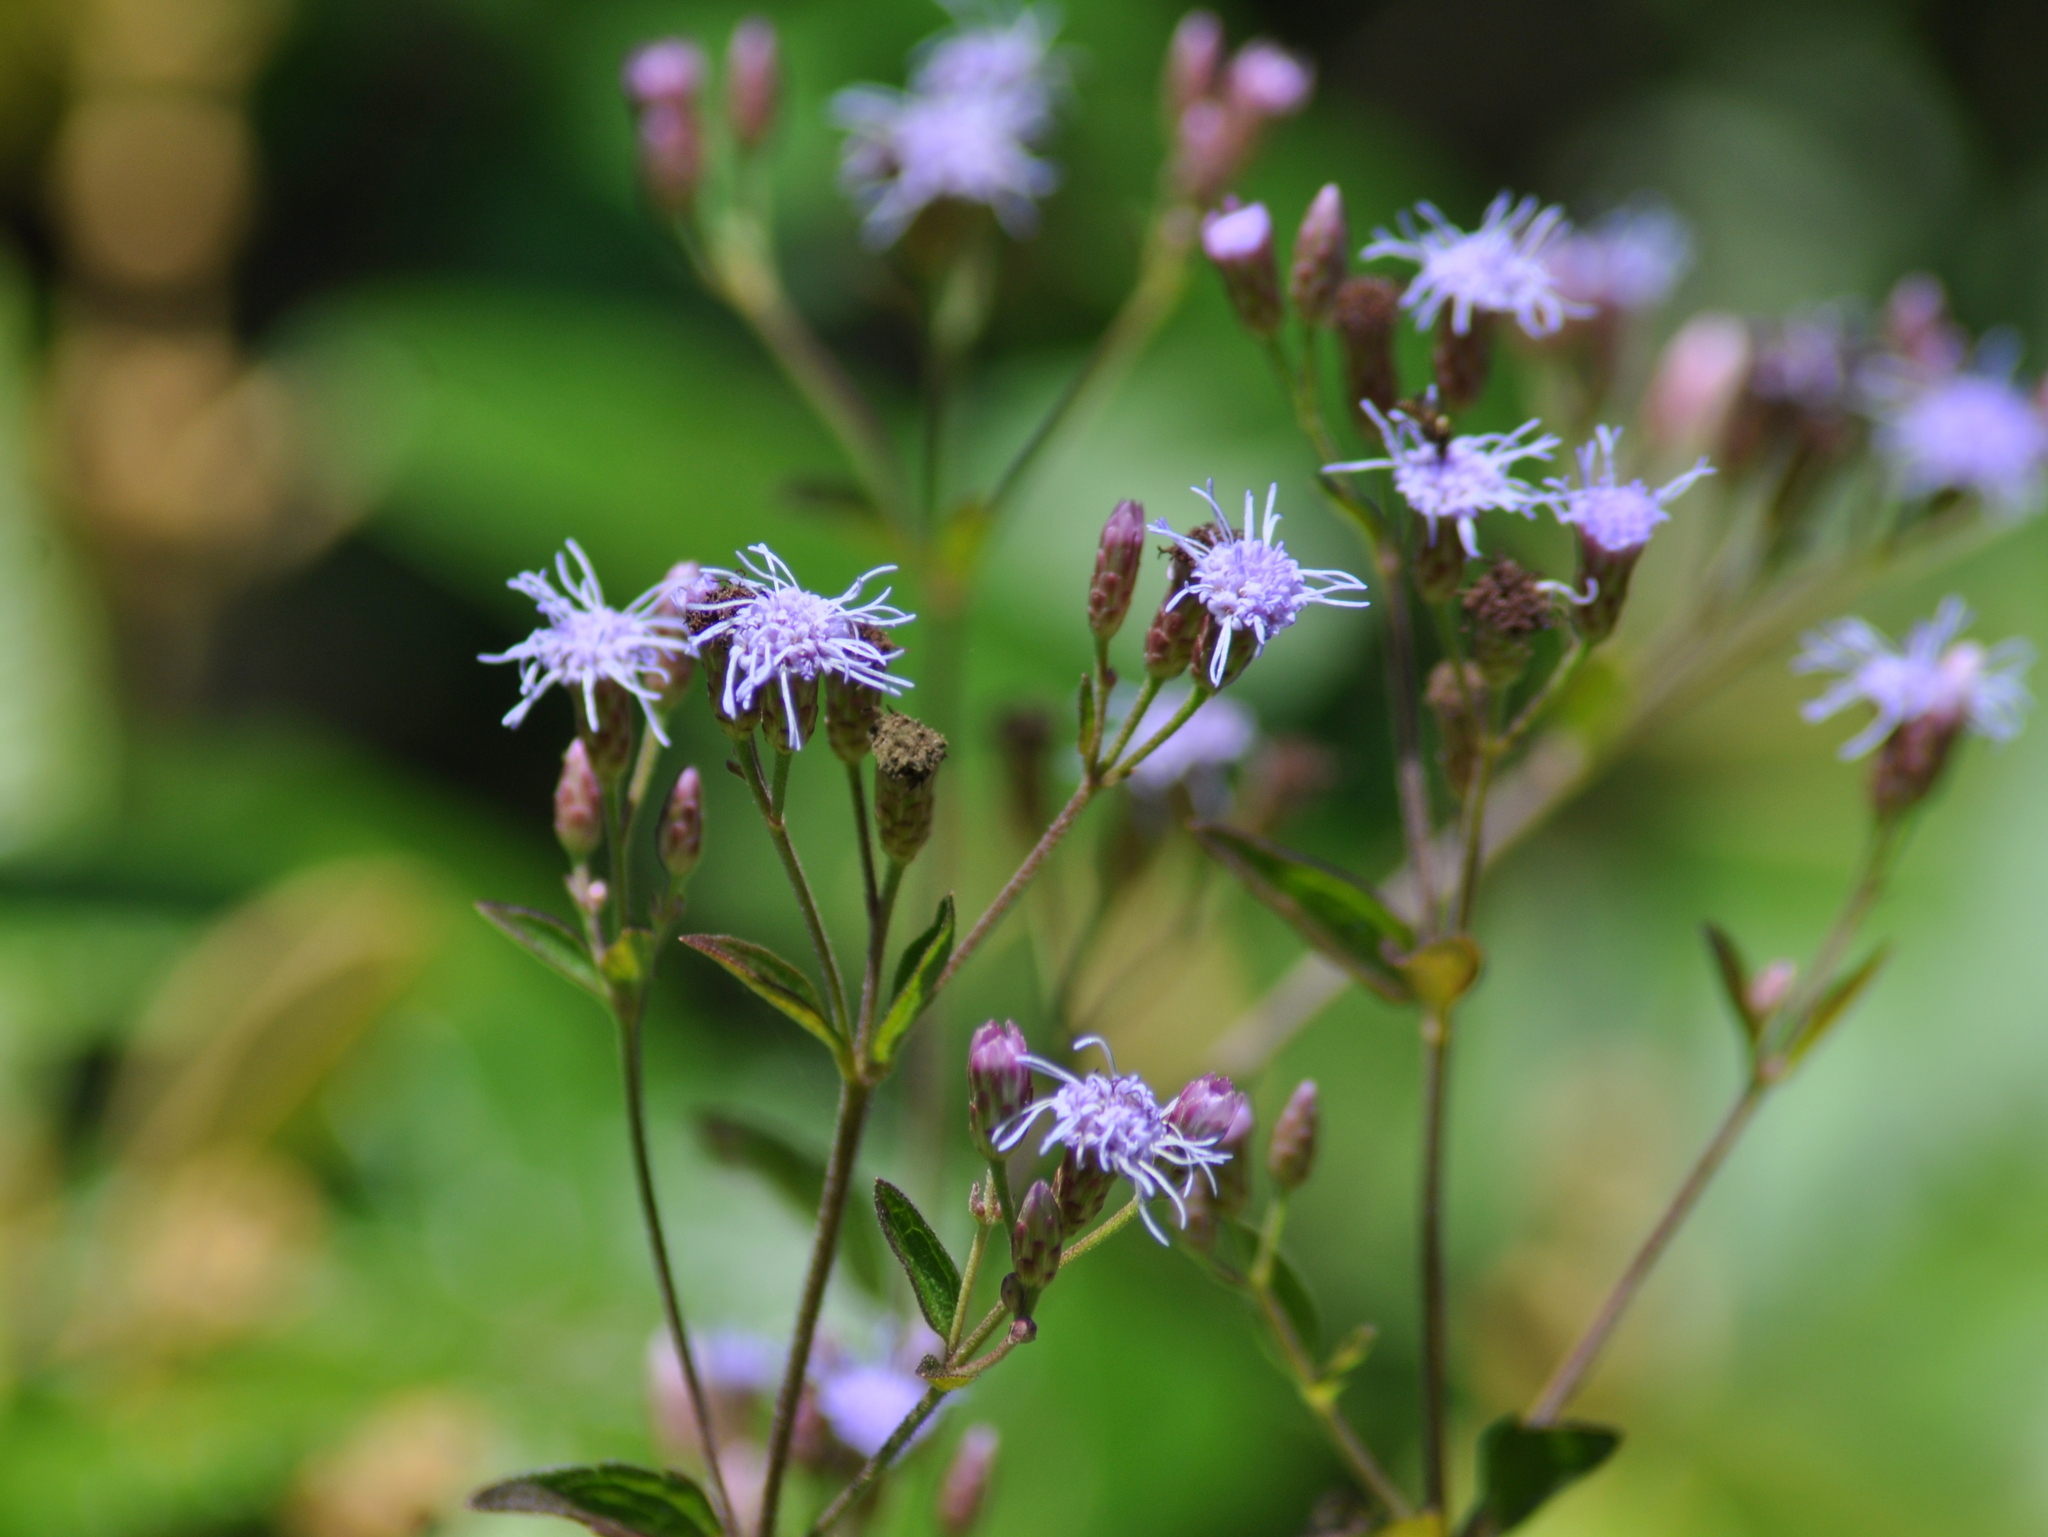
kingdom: Plantae
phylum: Tracheophyta
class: Magnoliopsida
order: Asterales
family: Asteraceae
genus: Chromolaena
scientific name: Chromolaena laevigata
